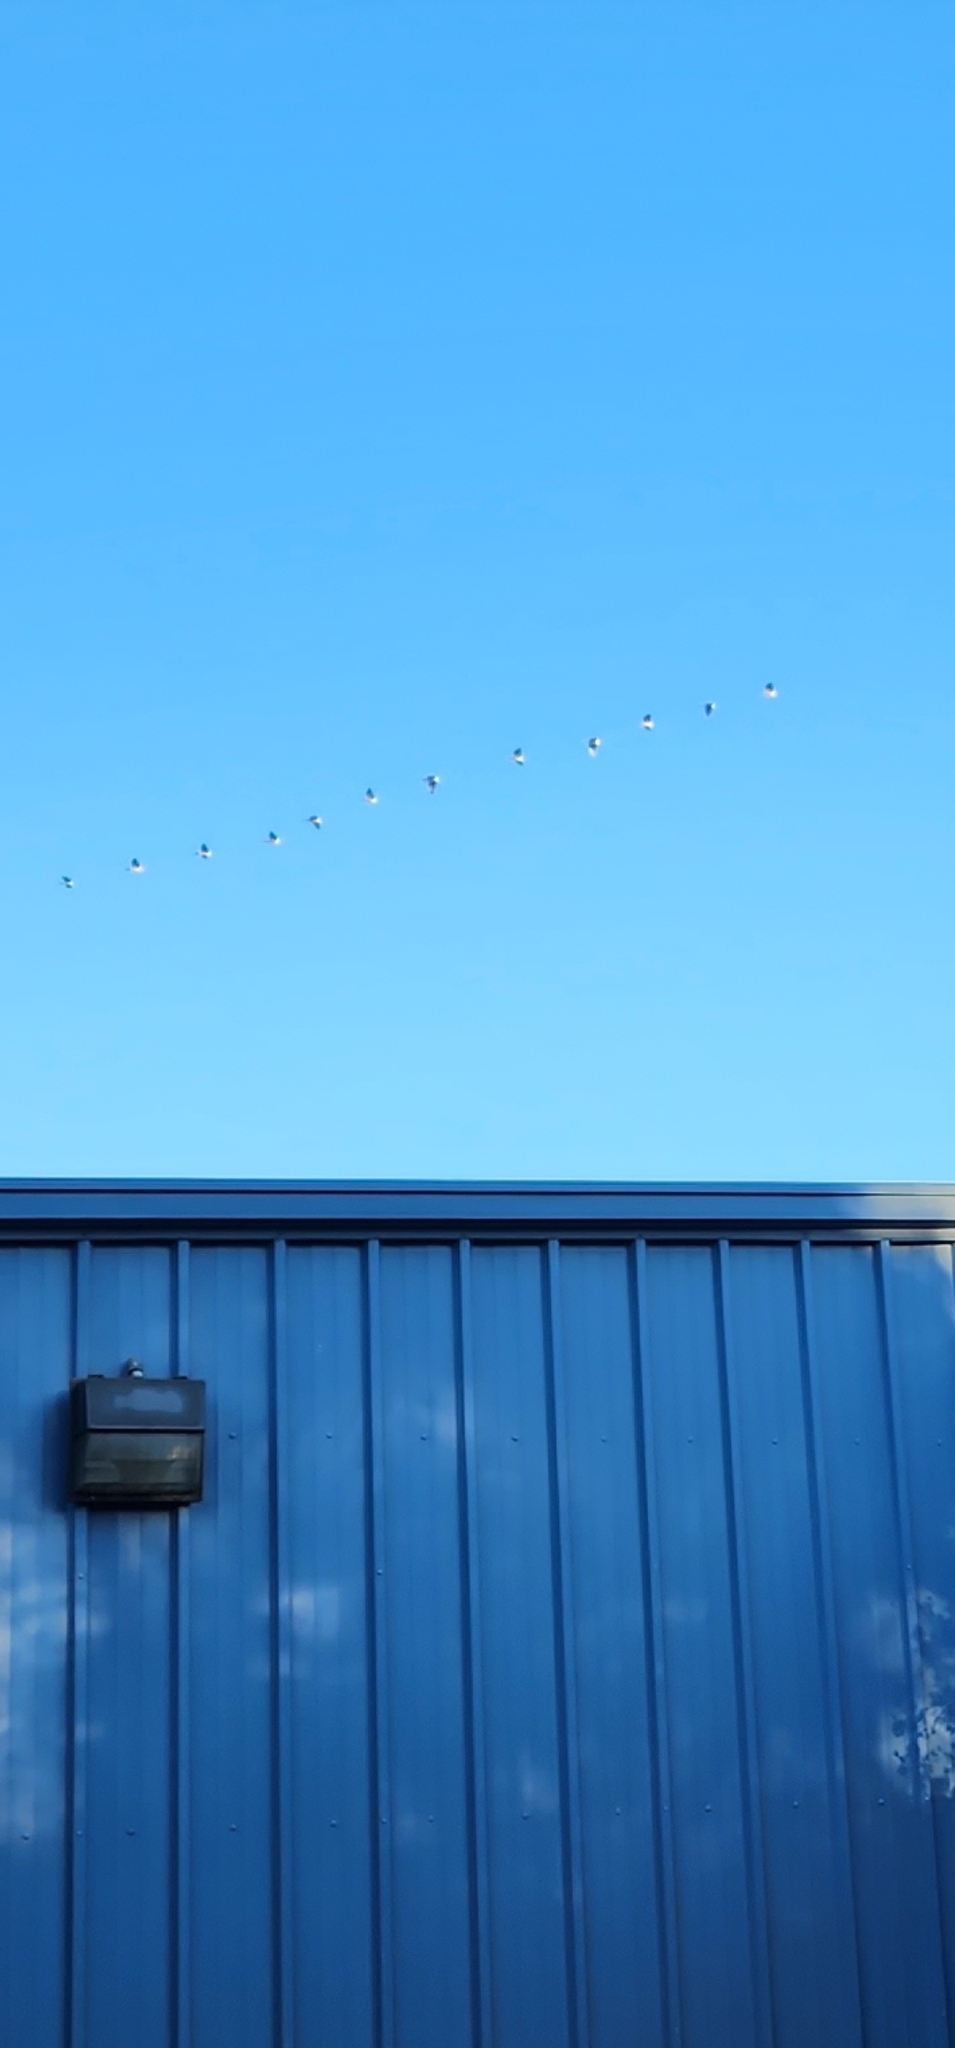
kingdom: Animalia
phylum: Chordata
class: Aves
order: Anseriformes
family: Anatidae
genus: Branta
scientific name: Branta canadensis
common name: Canada goose
